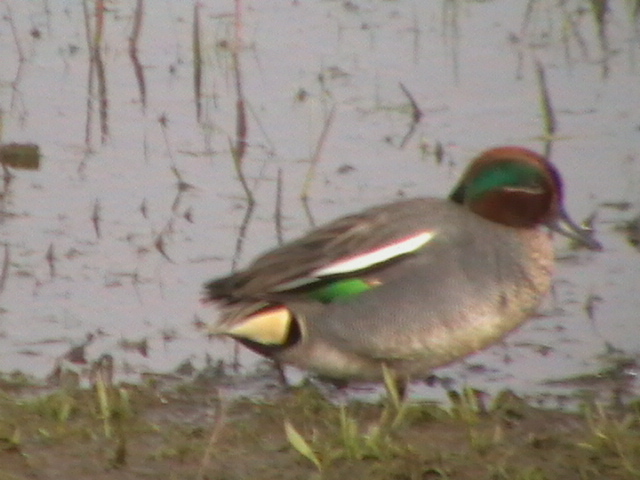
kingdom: Animalia
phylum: Chordata
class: Aves
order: Anseriformes
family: Anatidae
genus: Anas
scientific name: Anas crecca
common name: Eurasian teal
